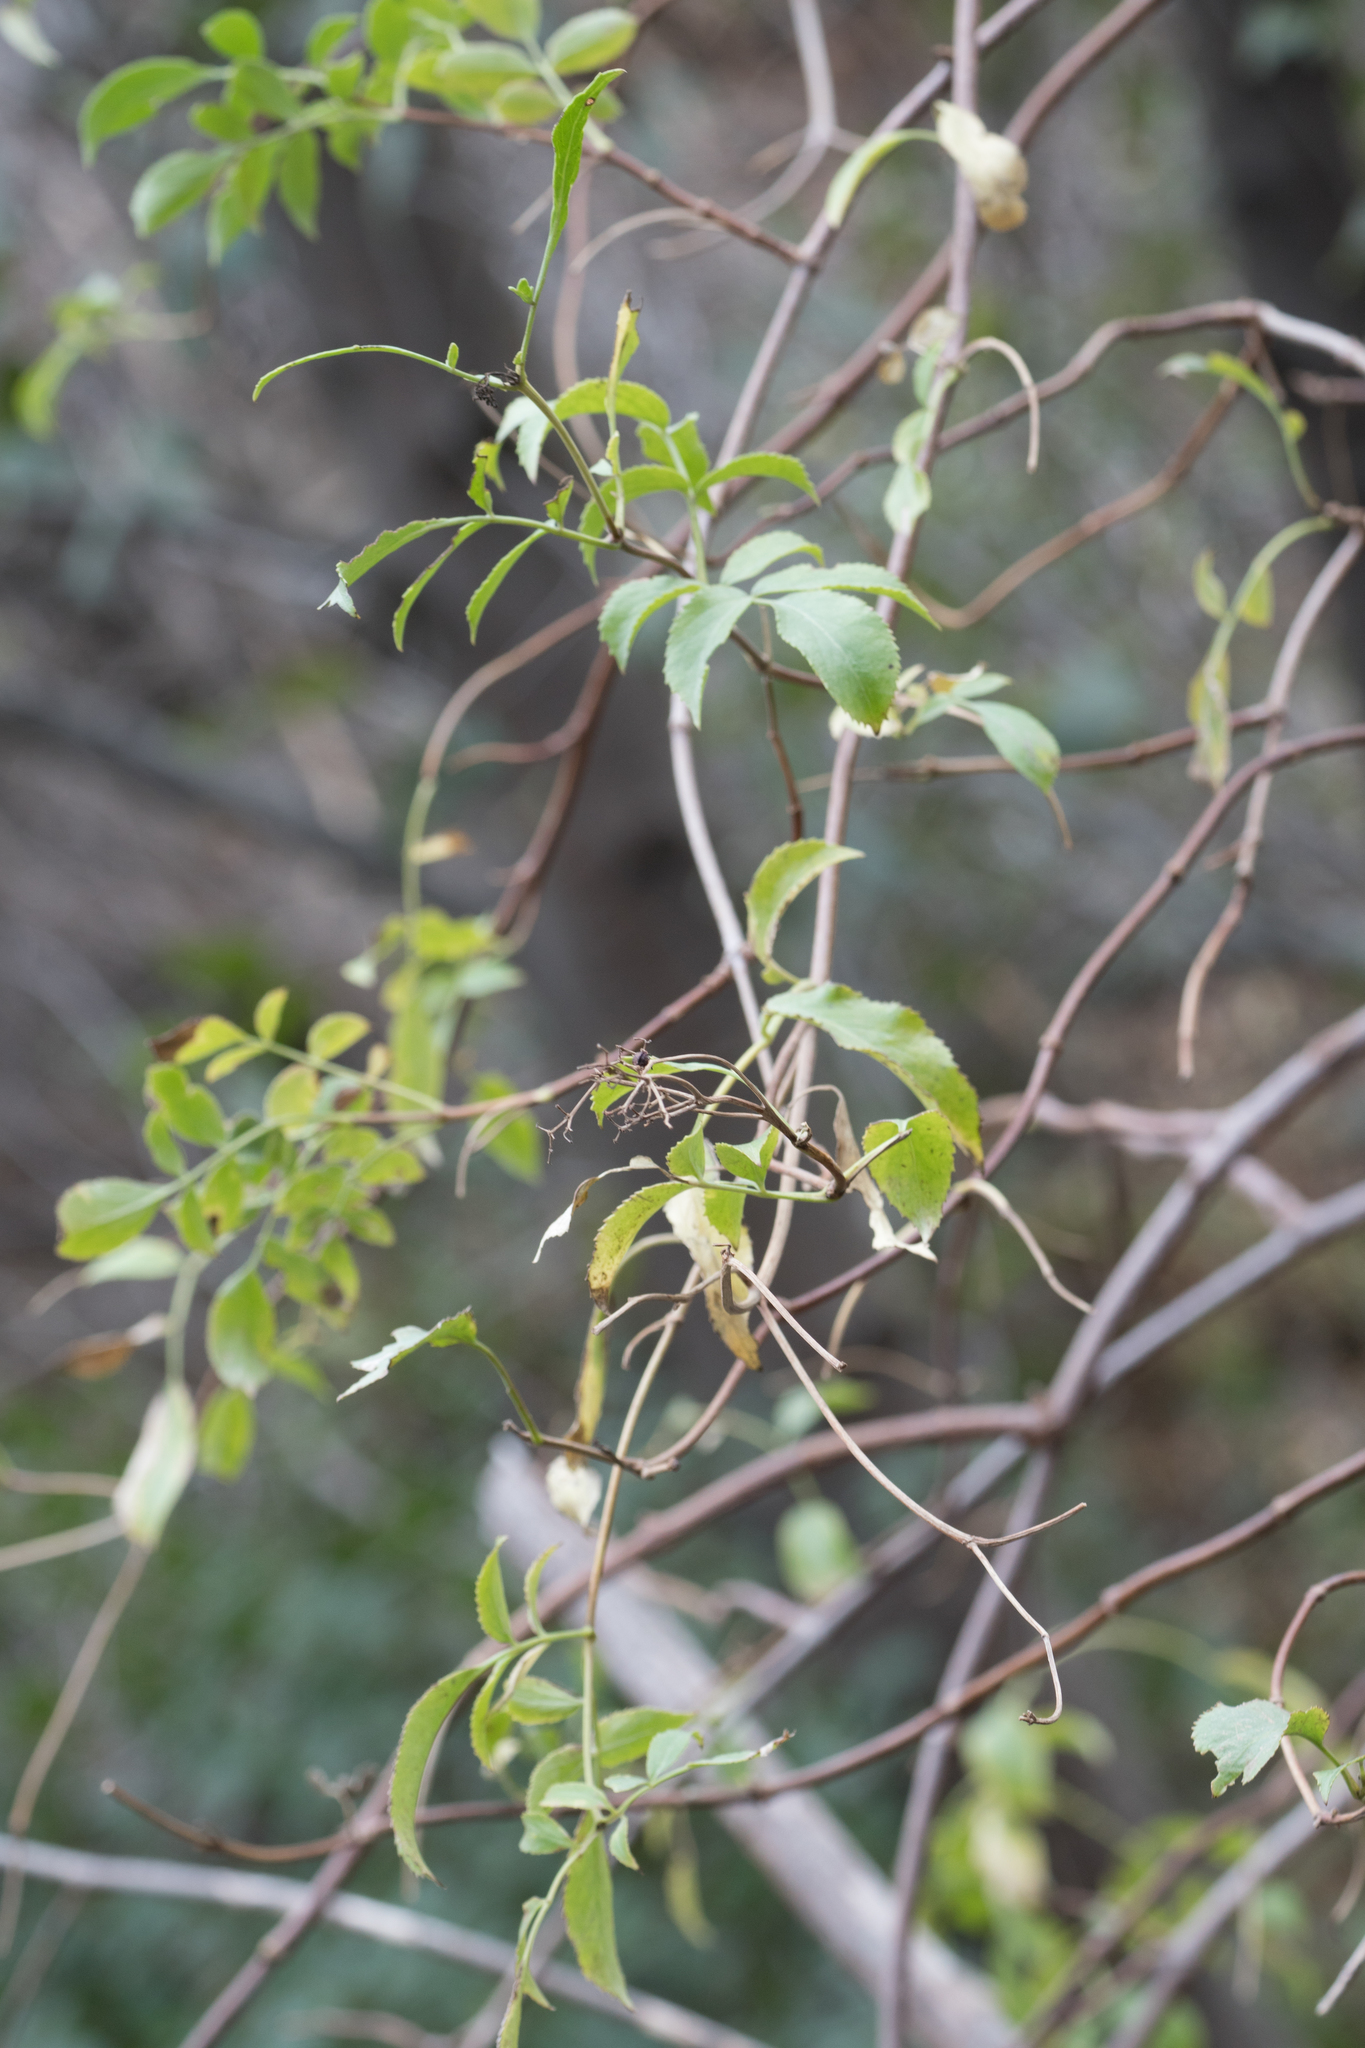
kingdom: Plantae
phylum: Tracheophyta
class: Magnoliopsida
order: Dipsacales
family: Viburnaceae
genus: Sambucus
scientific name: Sambucus cerulea
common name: Blue elder
